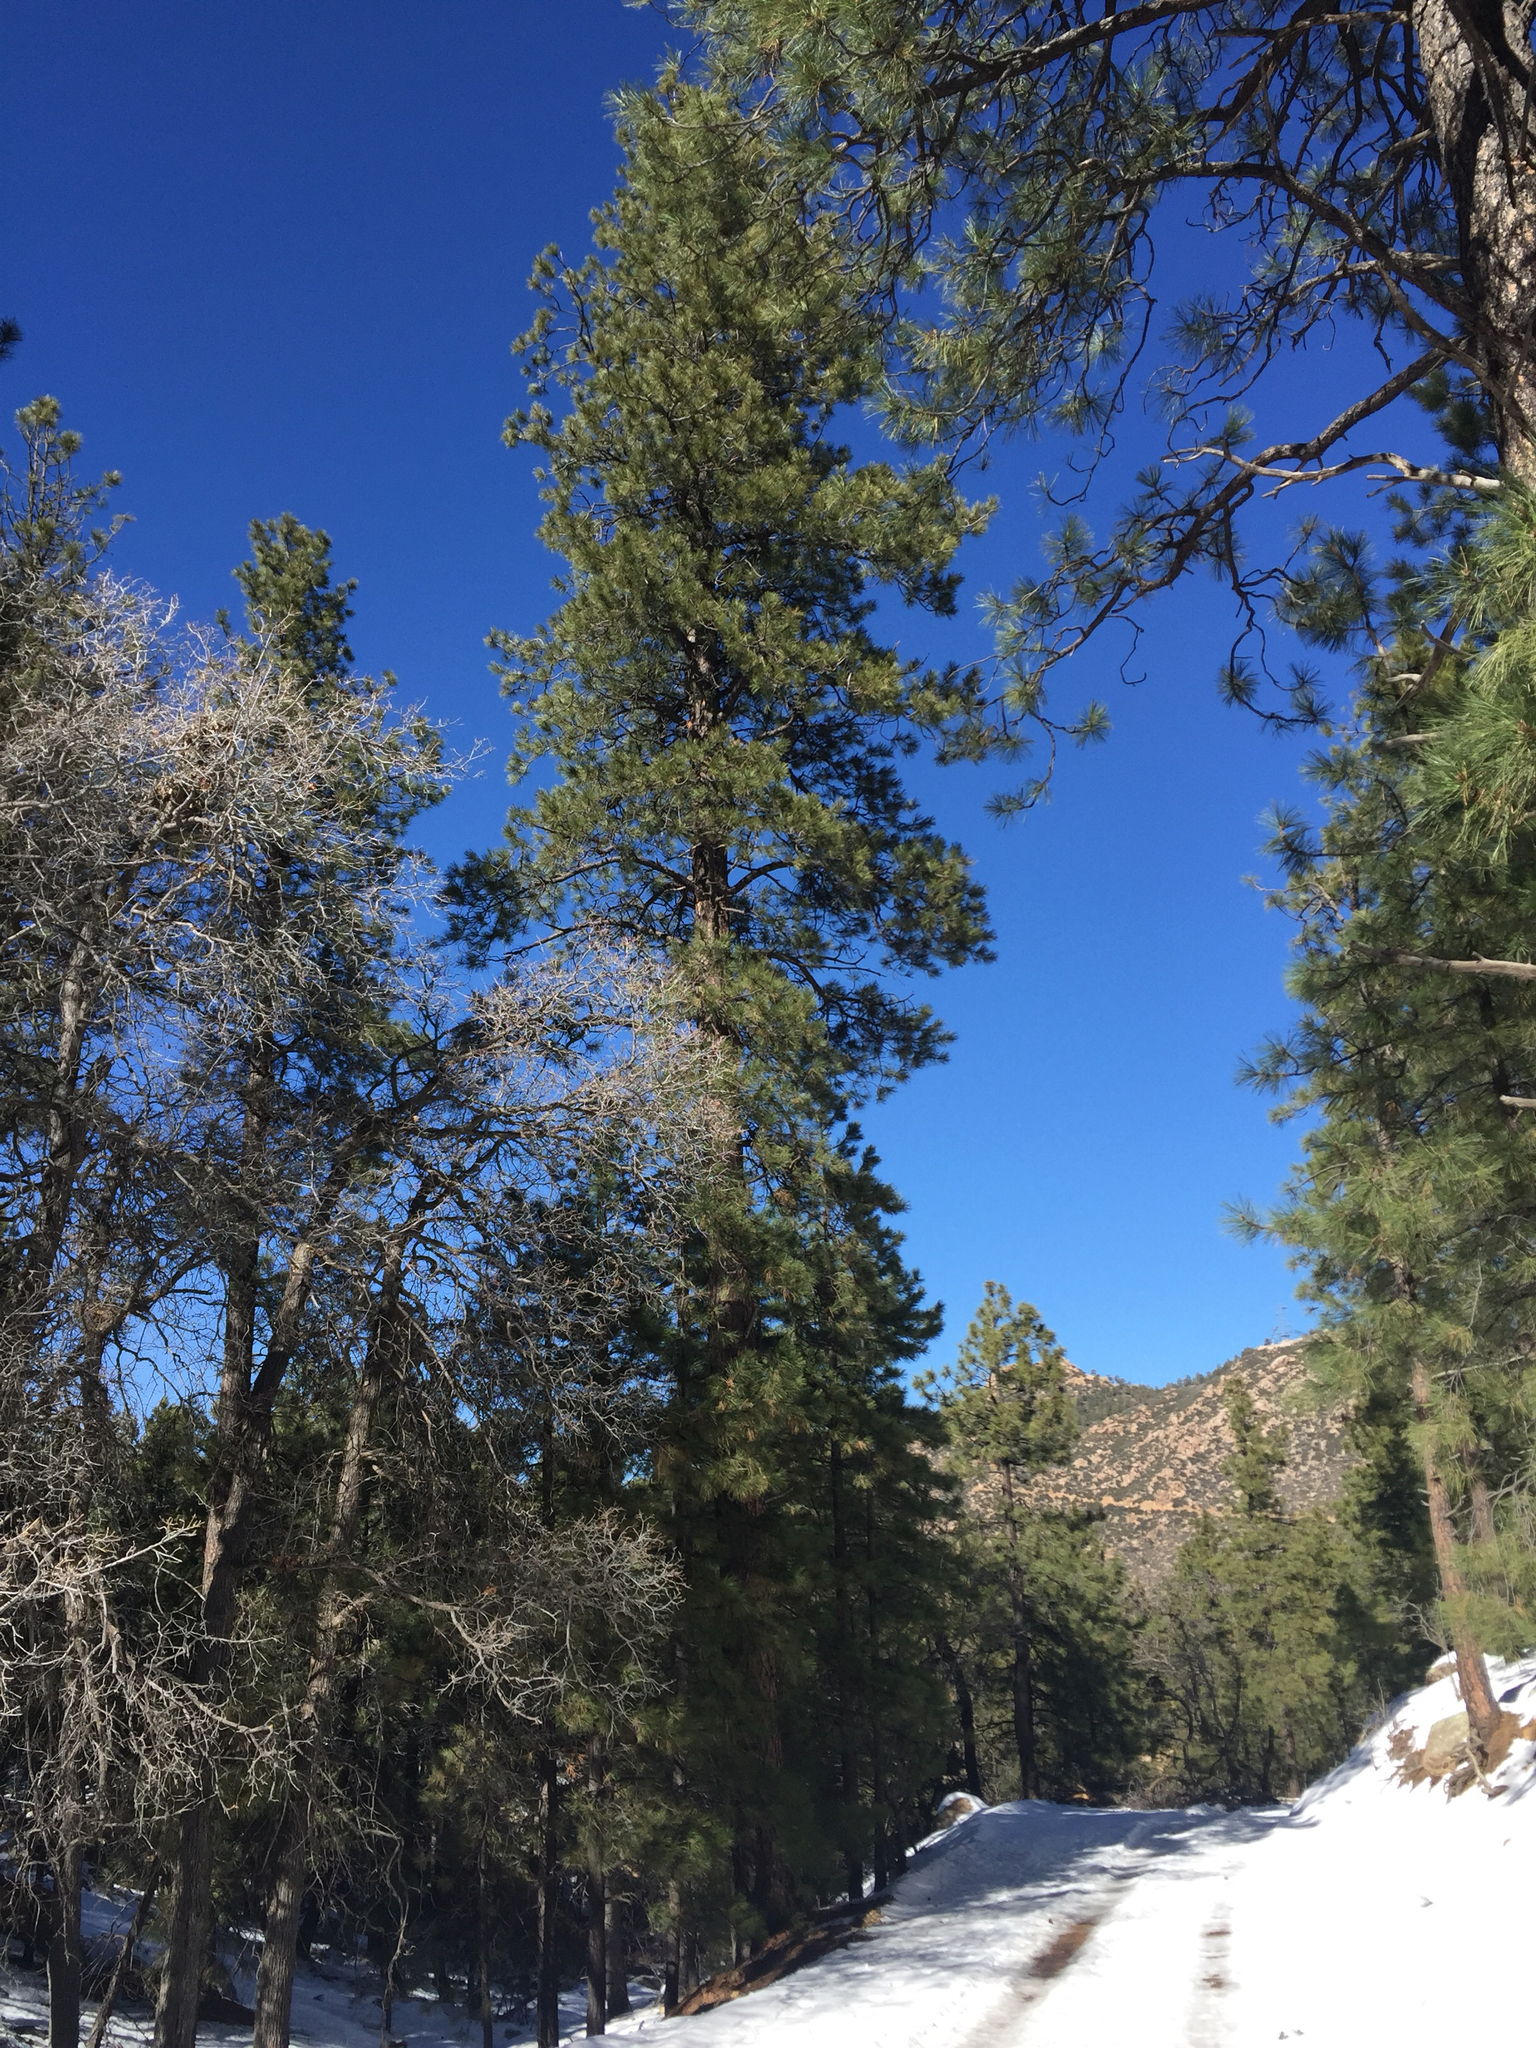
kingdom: Plantae
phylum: Tracheophyta
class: Pinopsida
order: Pinales
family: Pinaceae
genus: Pinus
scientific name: Pinus ponderosa
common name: Western yellow-pine
